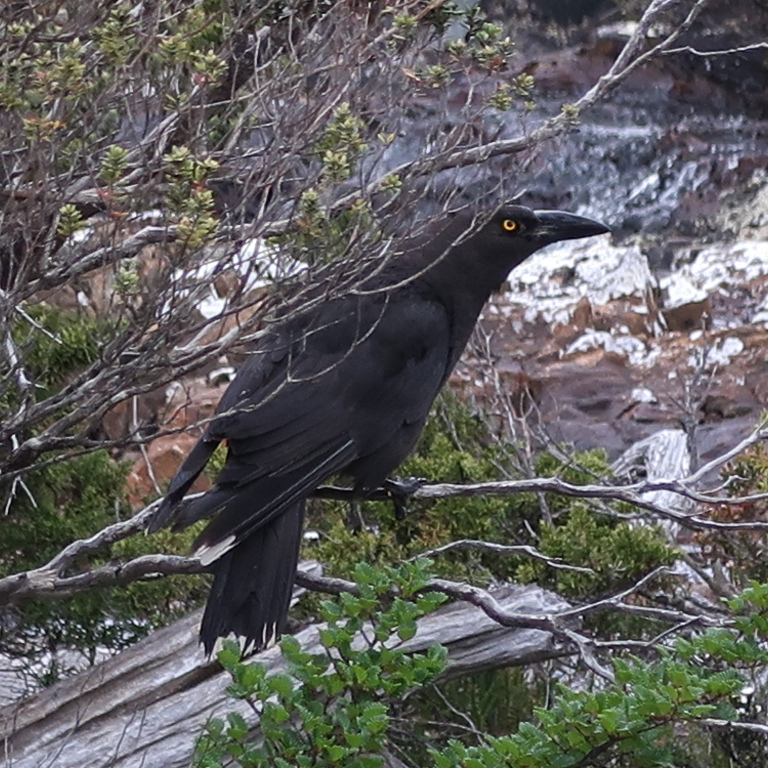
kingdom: Animalia
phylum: Chordata
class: Aves
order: Passeriformes
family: Cracticidae
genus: Strepera
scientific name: Strepera fuliginosa
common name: Black currawong
